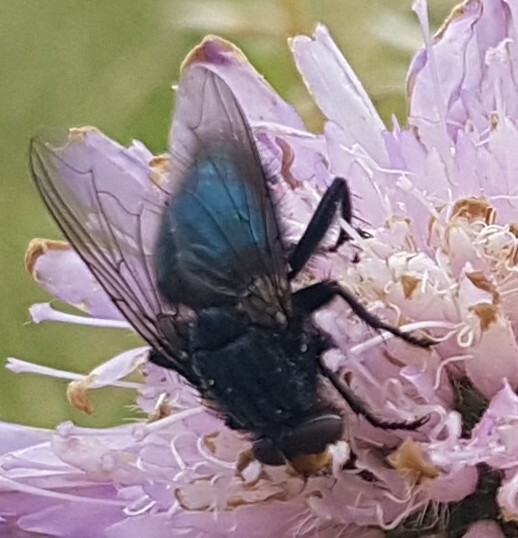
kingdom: Animalia
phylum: Arthropoda
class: Insecta
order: Diptera
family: Calliphoridae
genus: Cynomya
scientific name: Cynomya mortuorum
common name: Bluebottle blow fly
